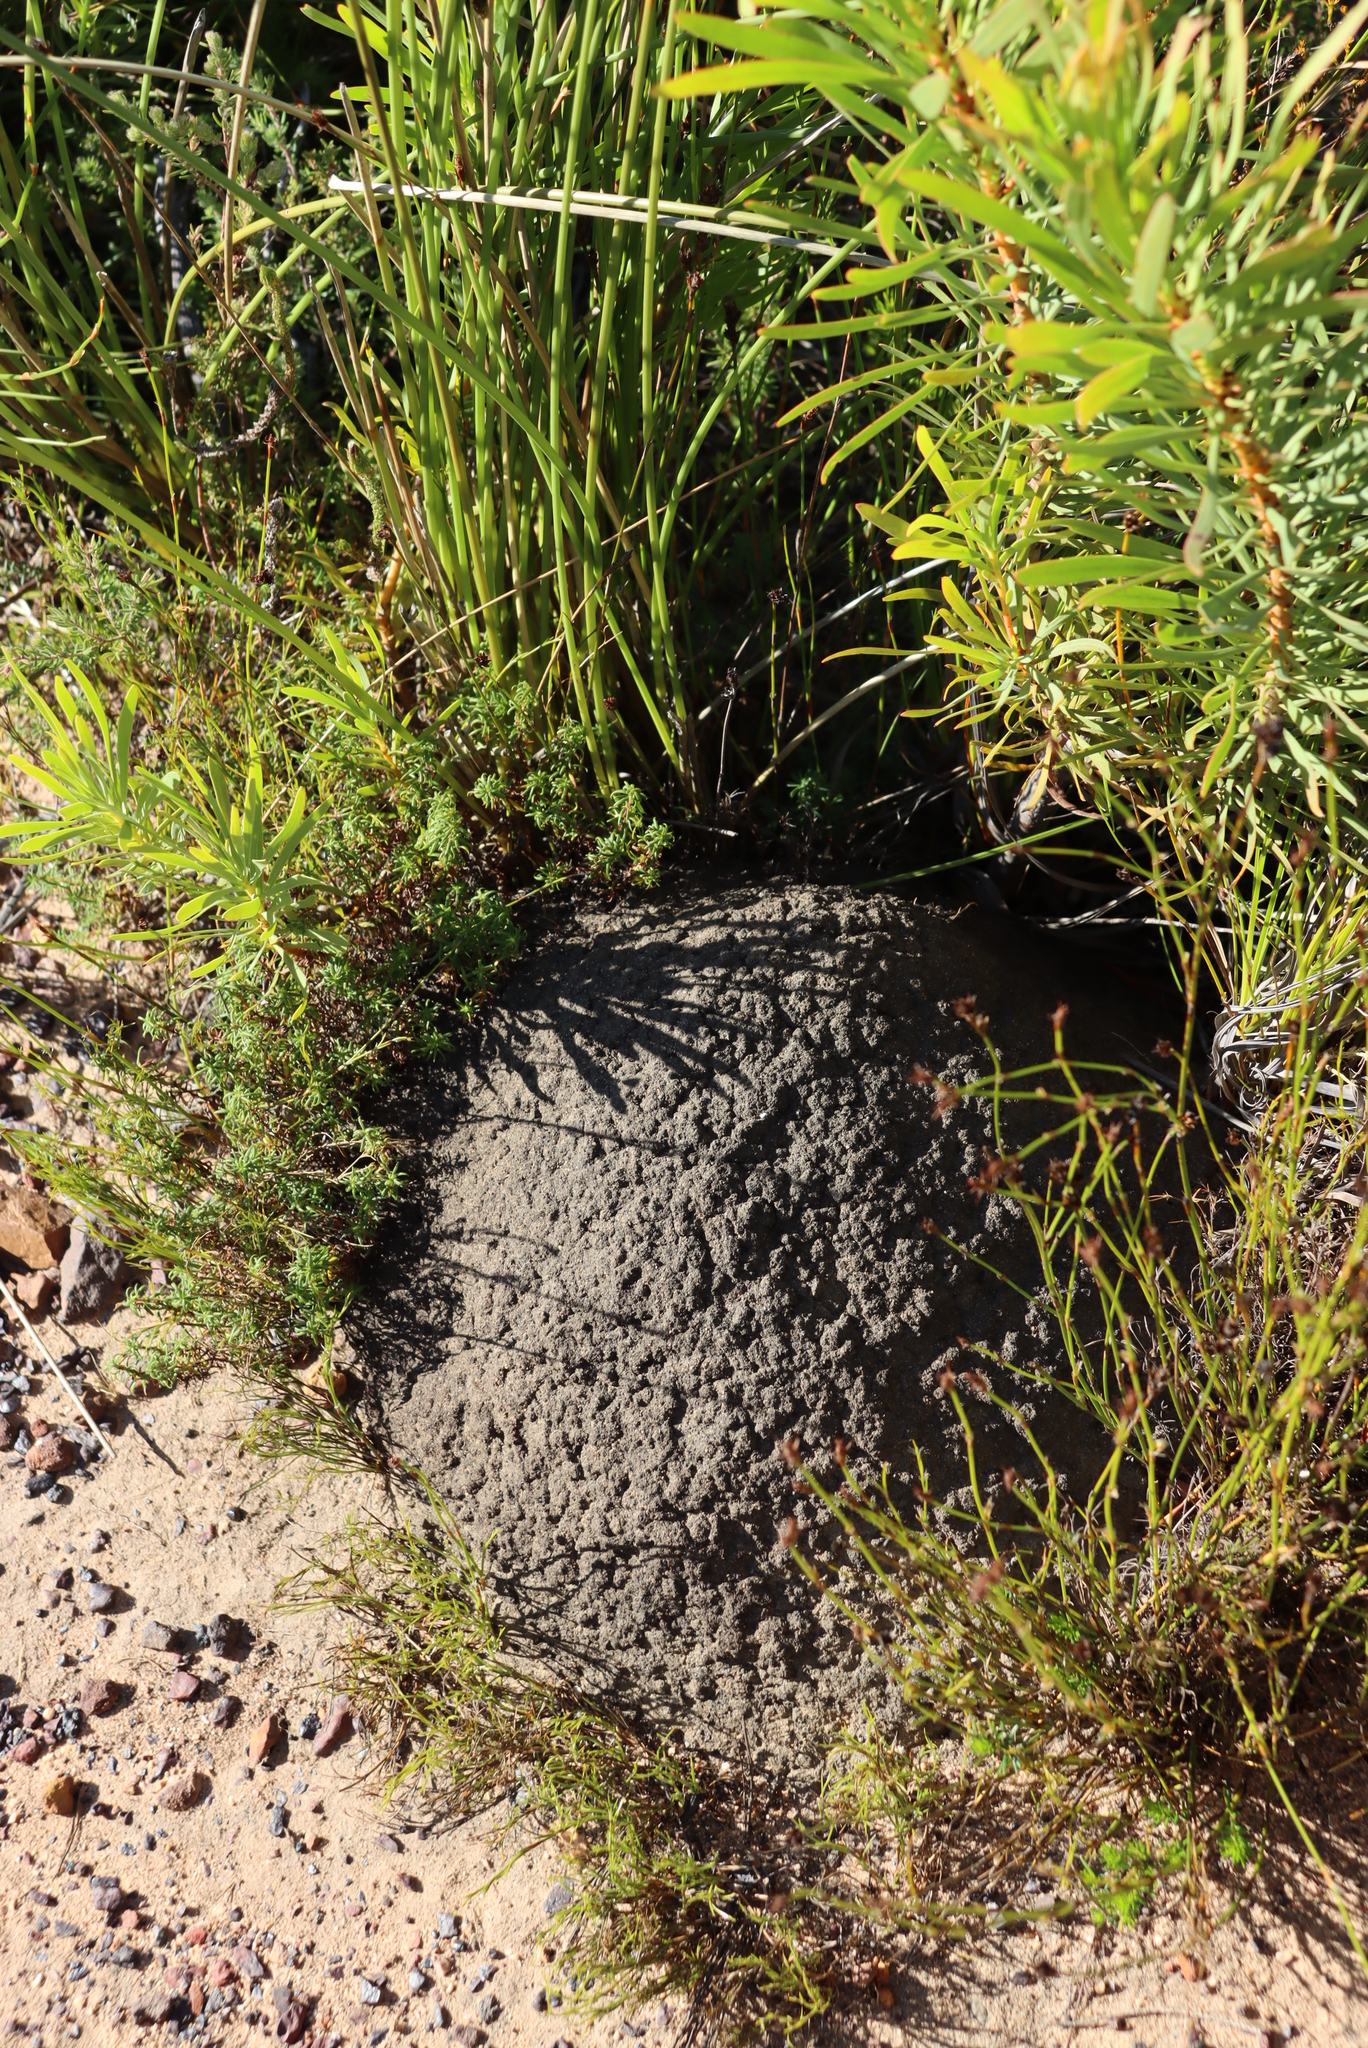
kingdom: Animalia
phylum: Arthropoda
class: Insecta
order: Blattodea
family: Termitidae
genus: Amitermes
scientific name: Amitermes hastatus
